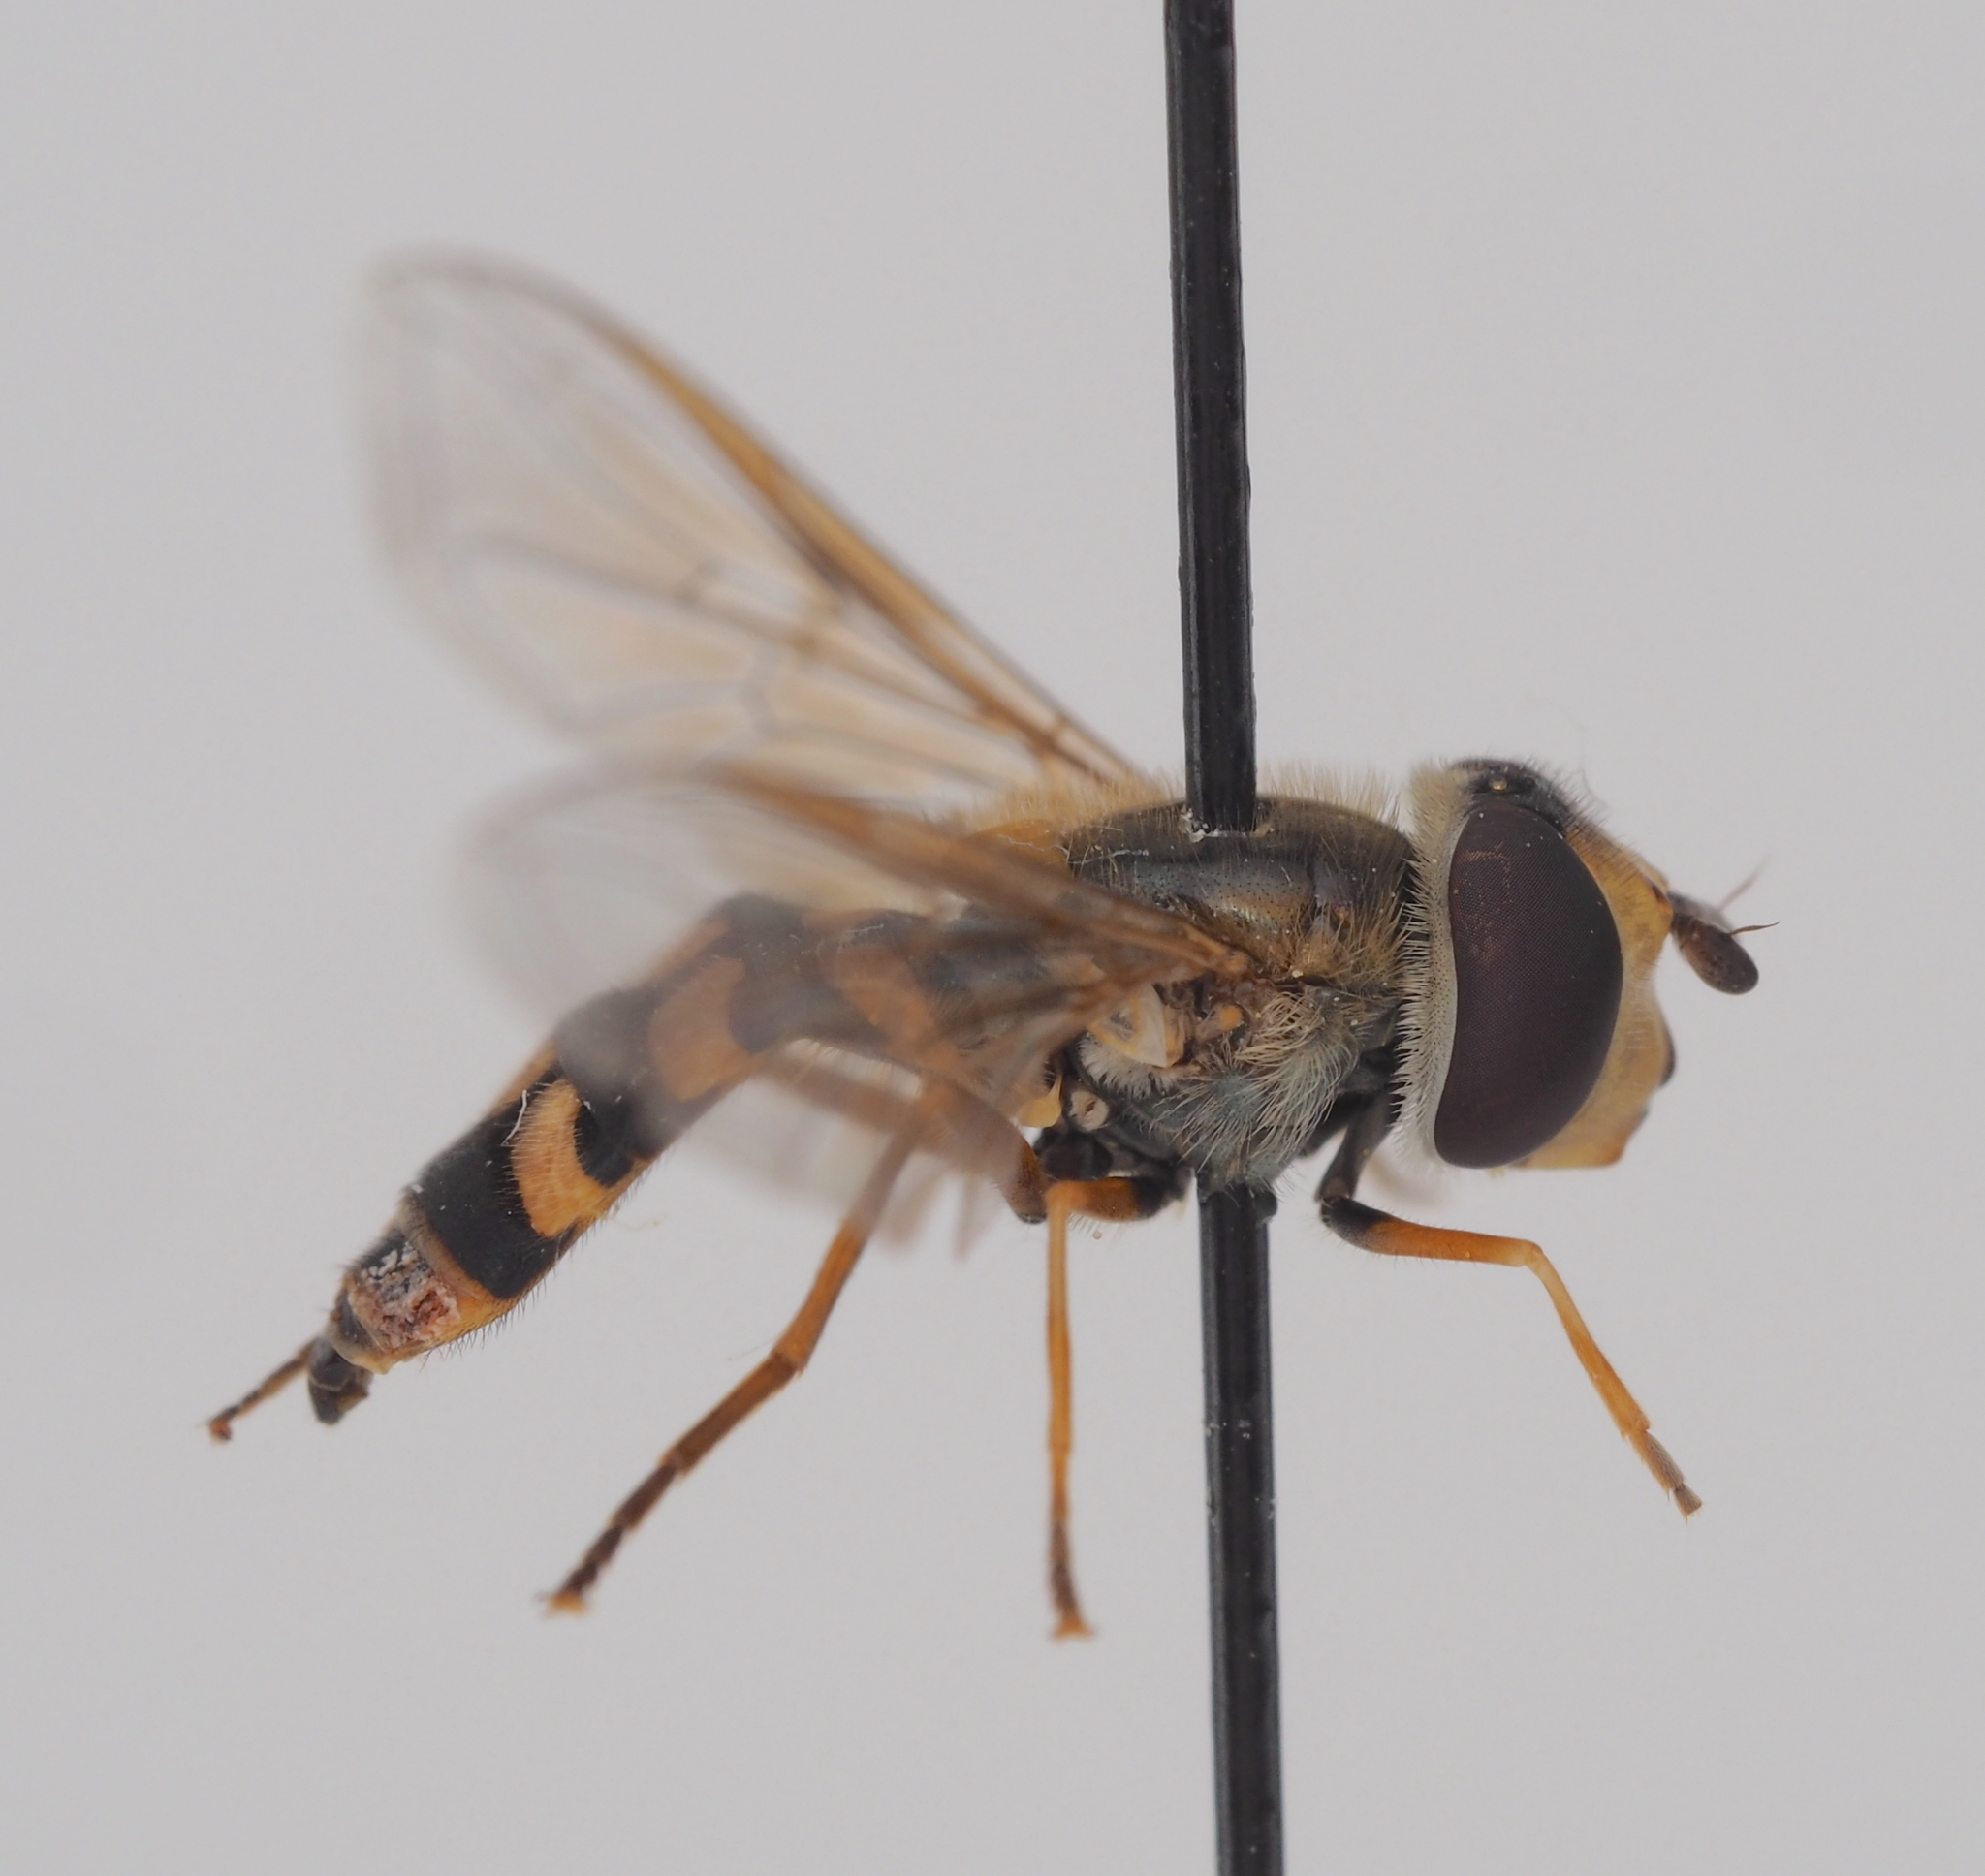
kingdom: Animalia
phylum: Arthropoda
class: Insecta
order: Diptera
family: Syrphidae
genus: Eupeodes
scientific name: Eupeodes corollae
